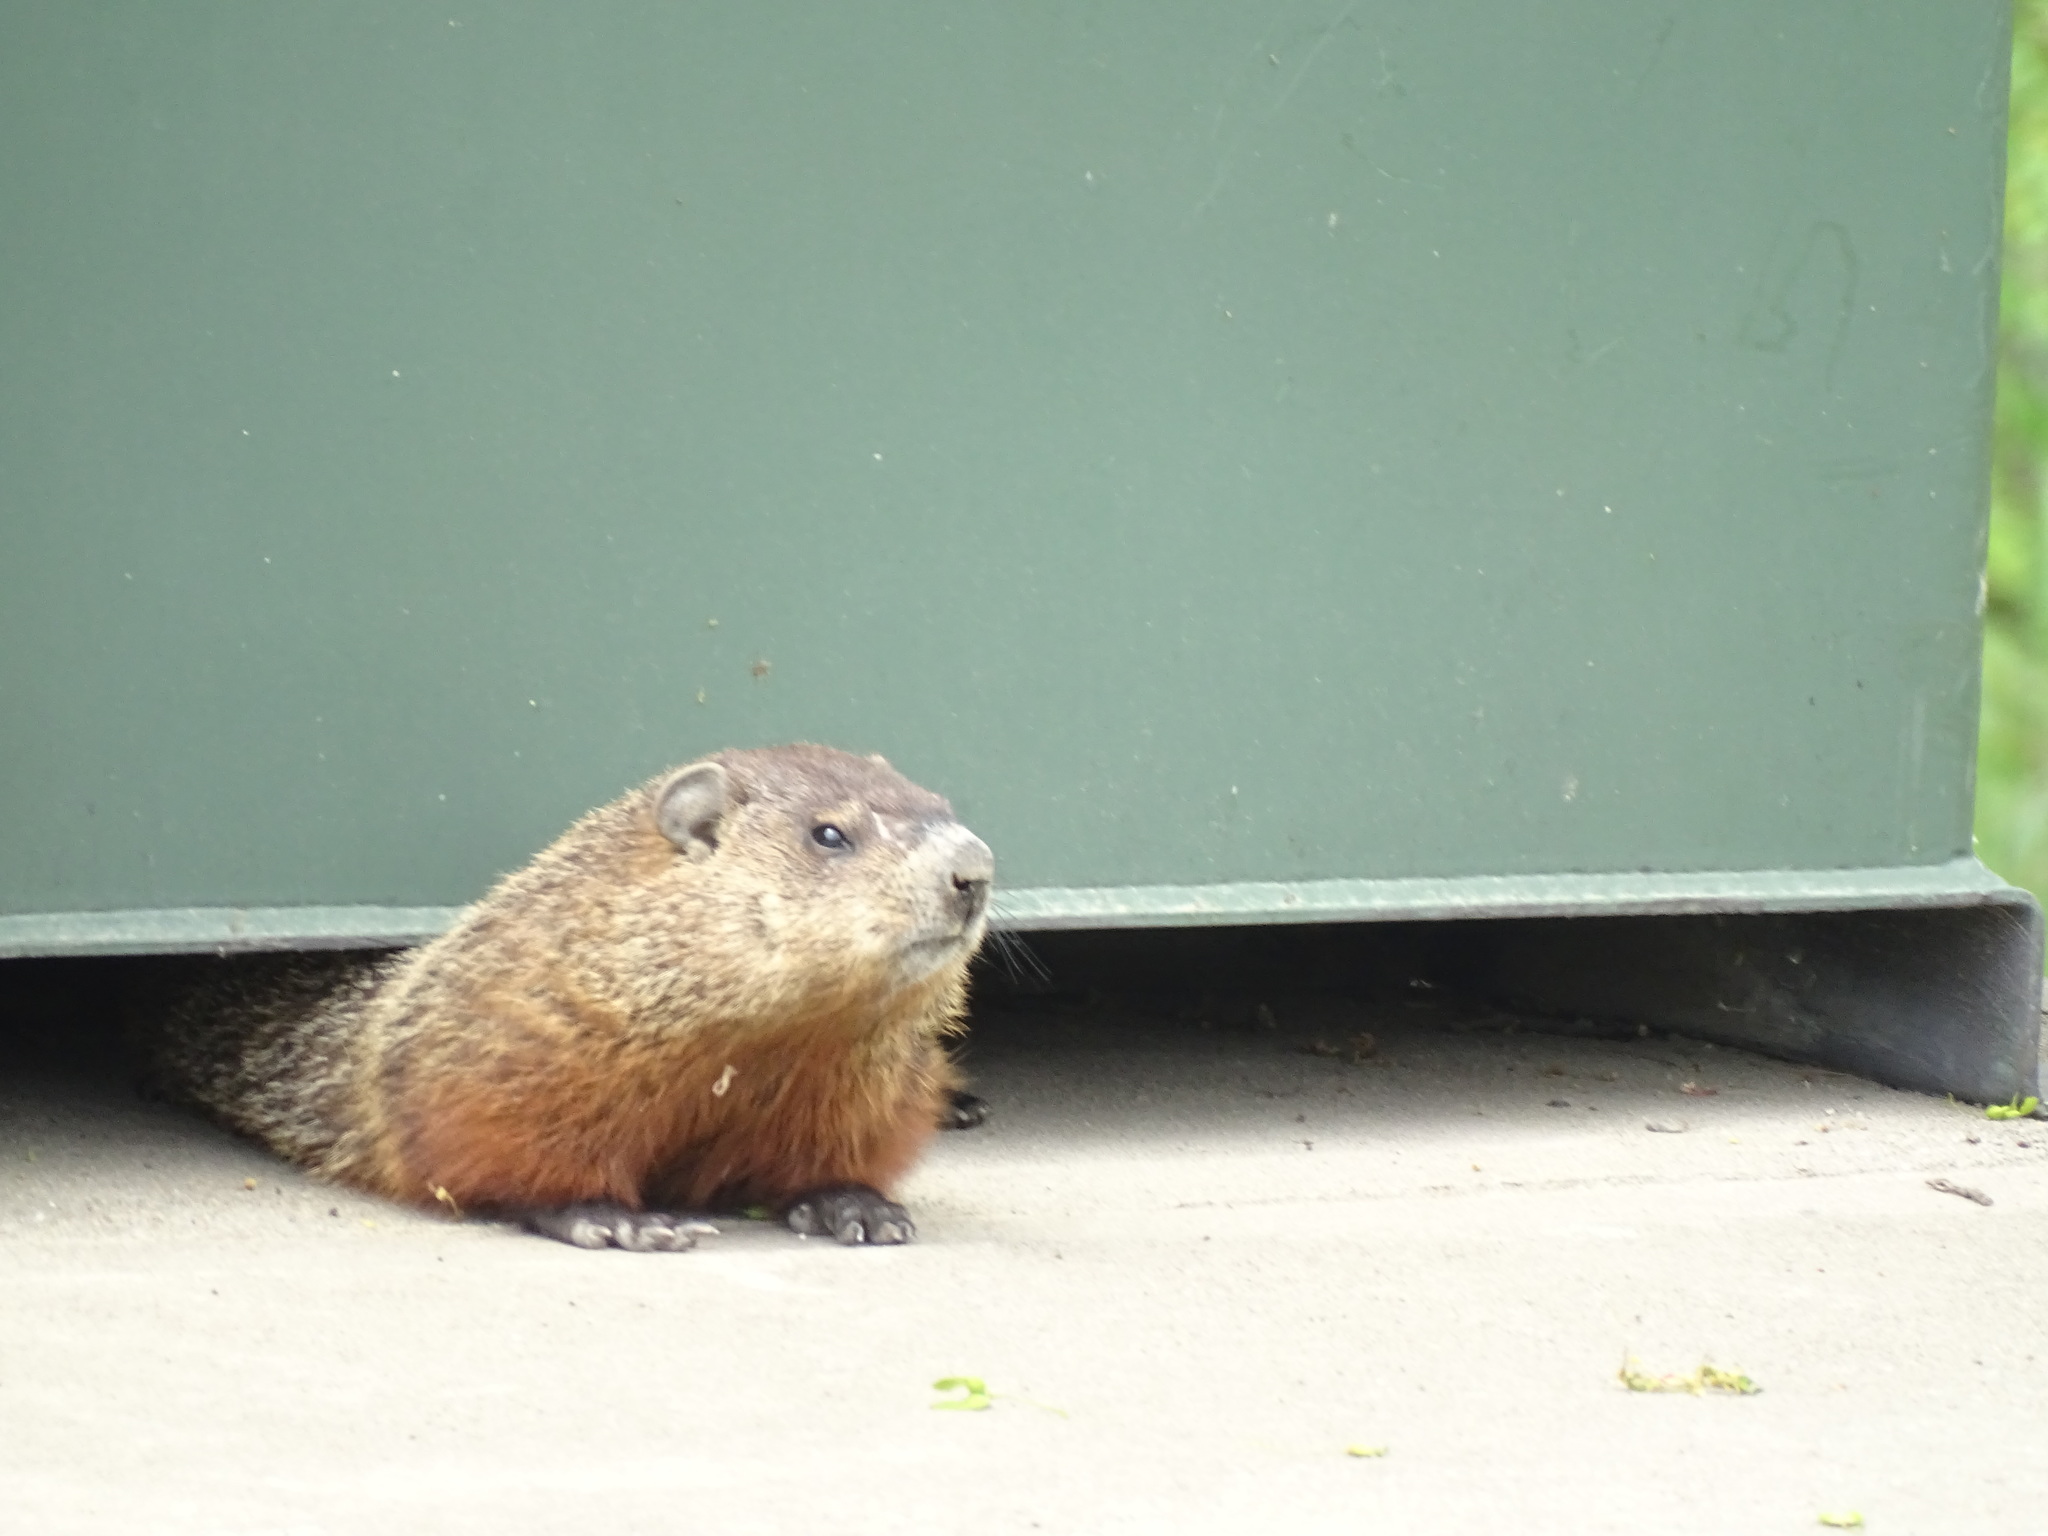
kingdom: Animalia
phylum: Chordata
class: Mammalia
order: Rodentia
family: Sciuridae
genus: Marmota
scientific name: Marmota monax
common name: Groundhog
